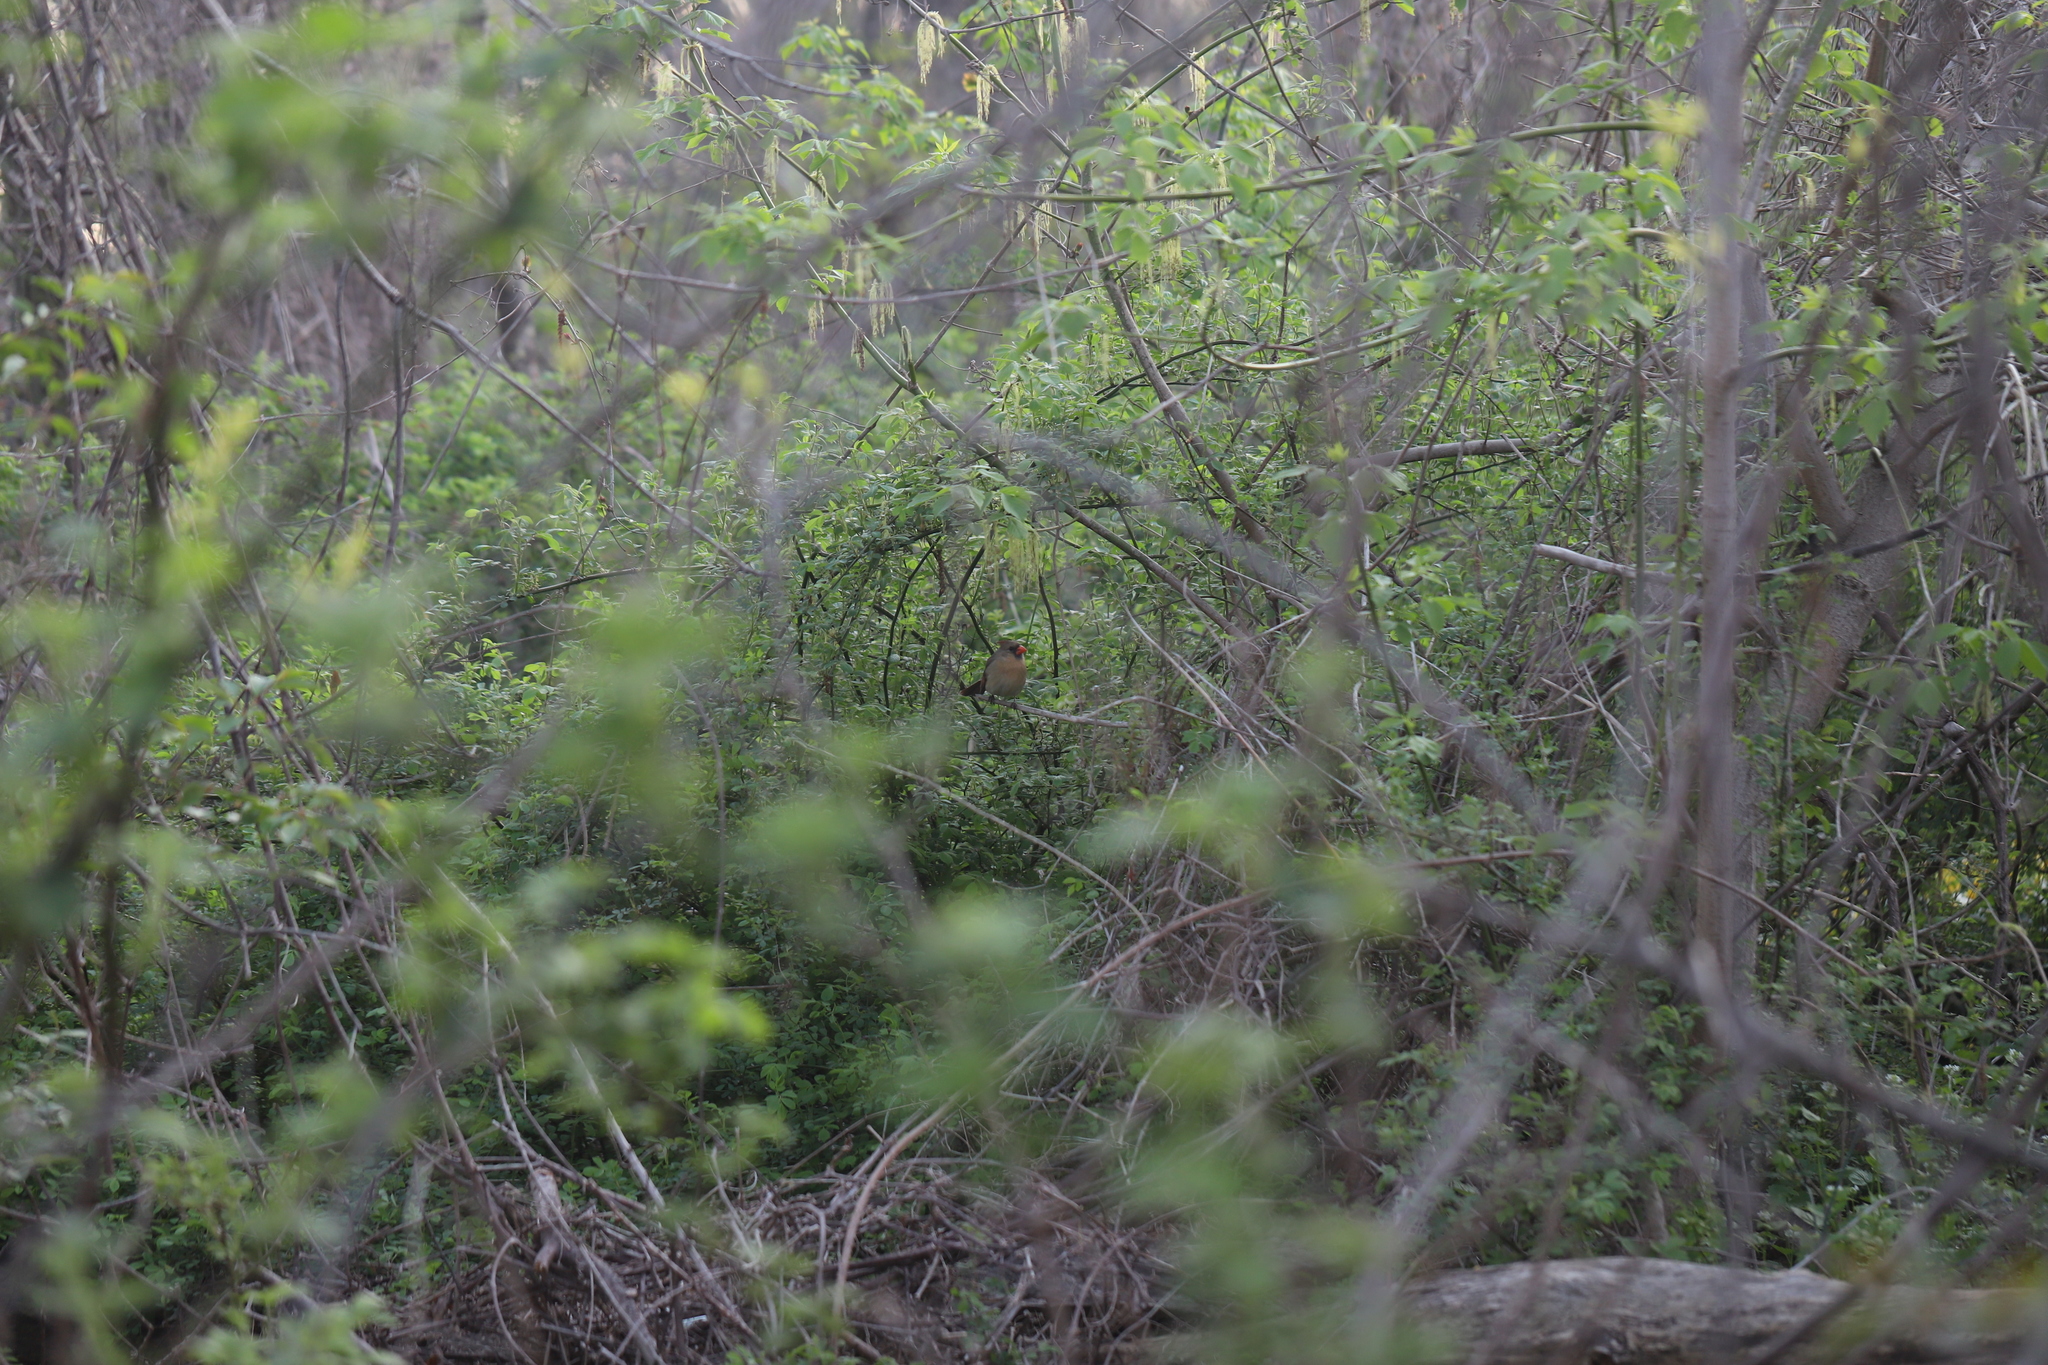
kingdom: Animalia
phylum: Chordata
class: Aves
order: Passeriformes
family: Cardinalidae
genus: Cardinalis
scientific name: Cardinalis cardinalis
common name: Northern cardinal
